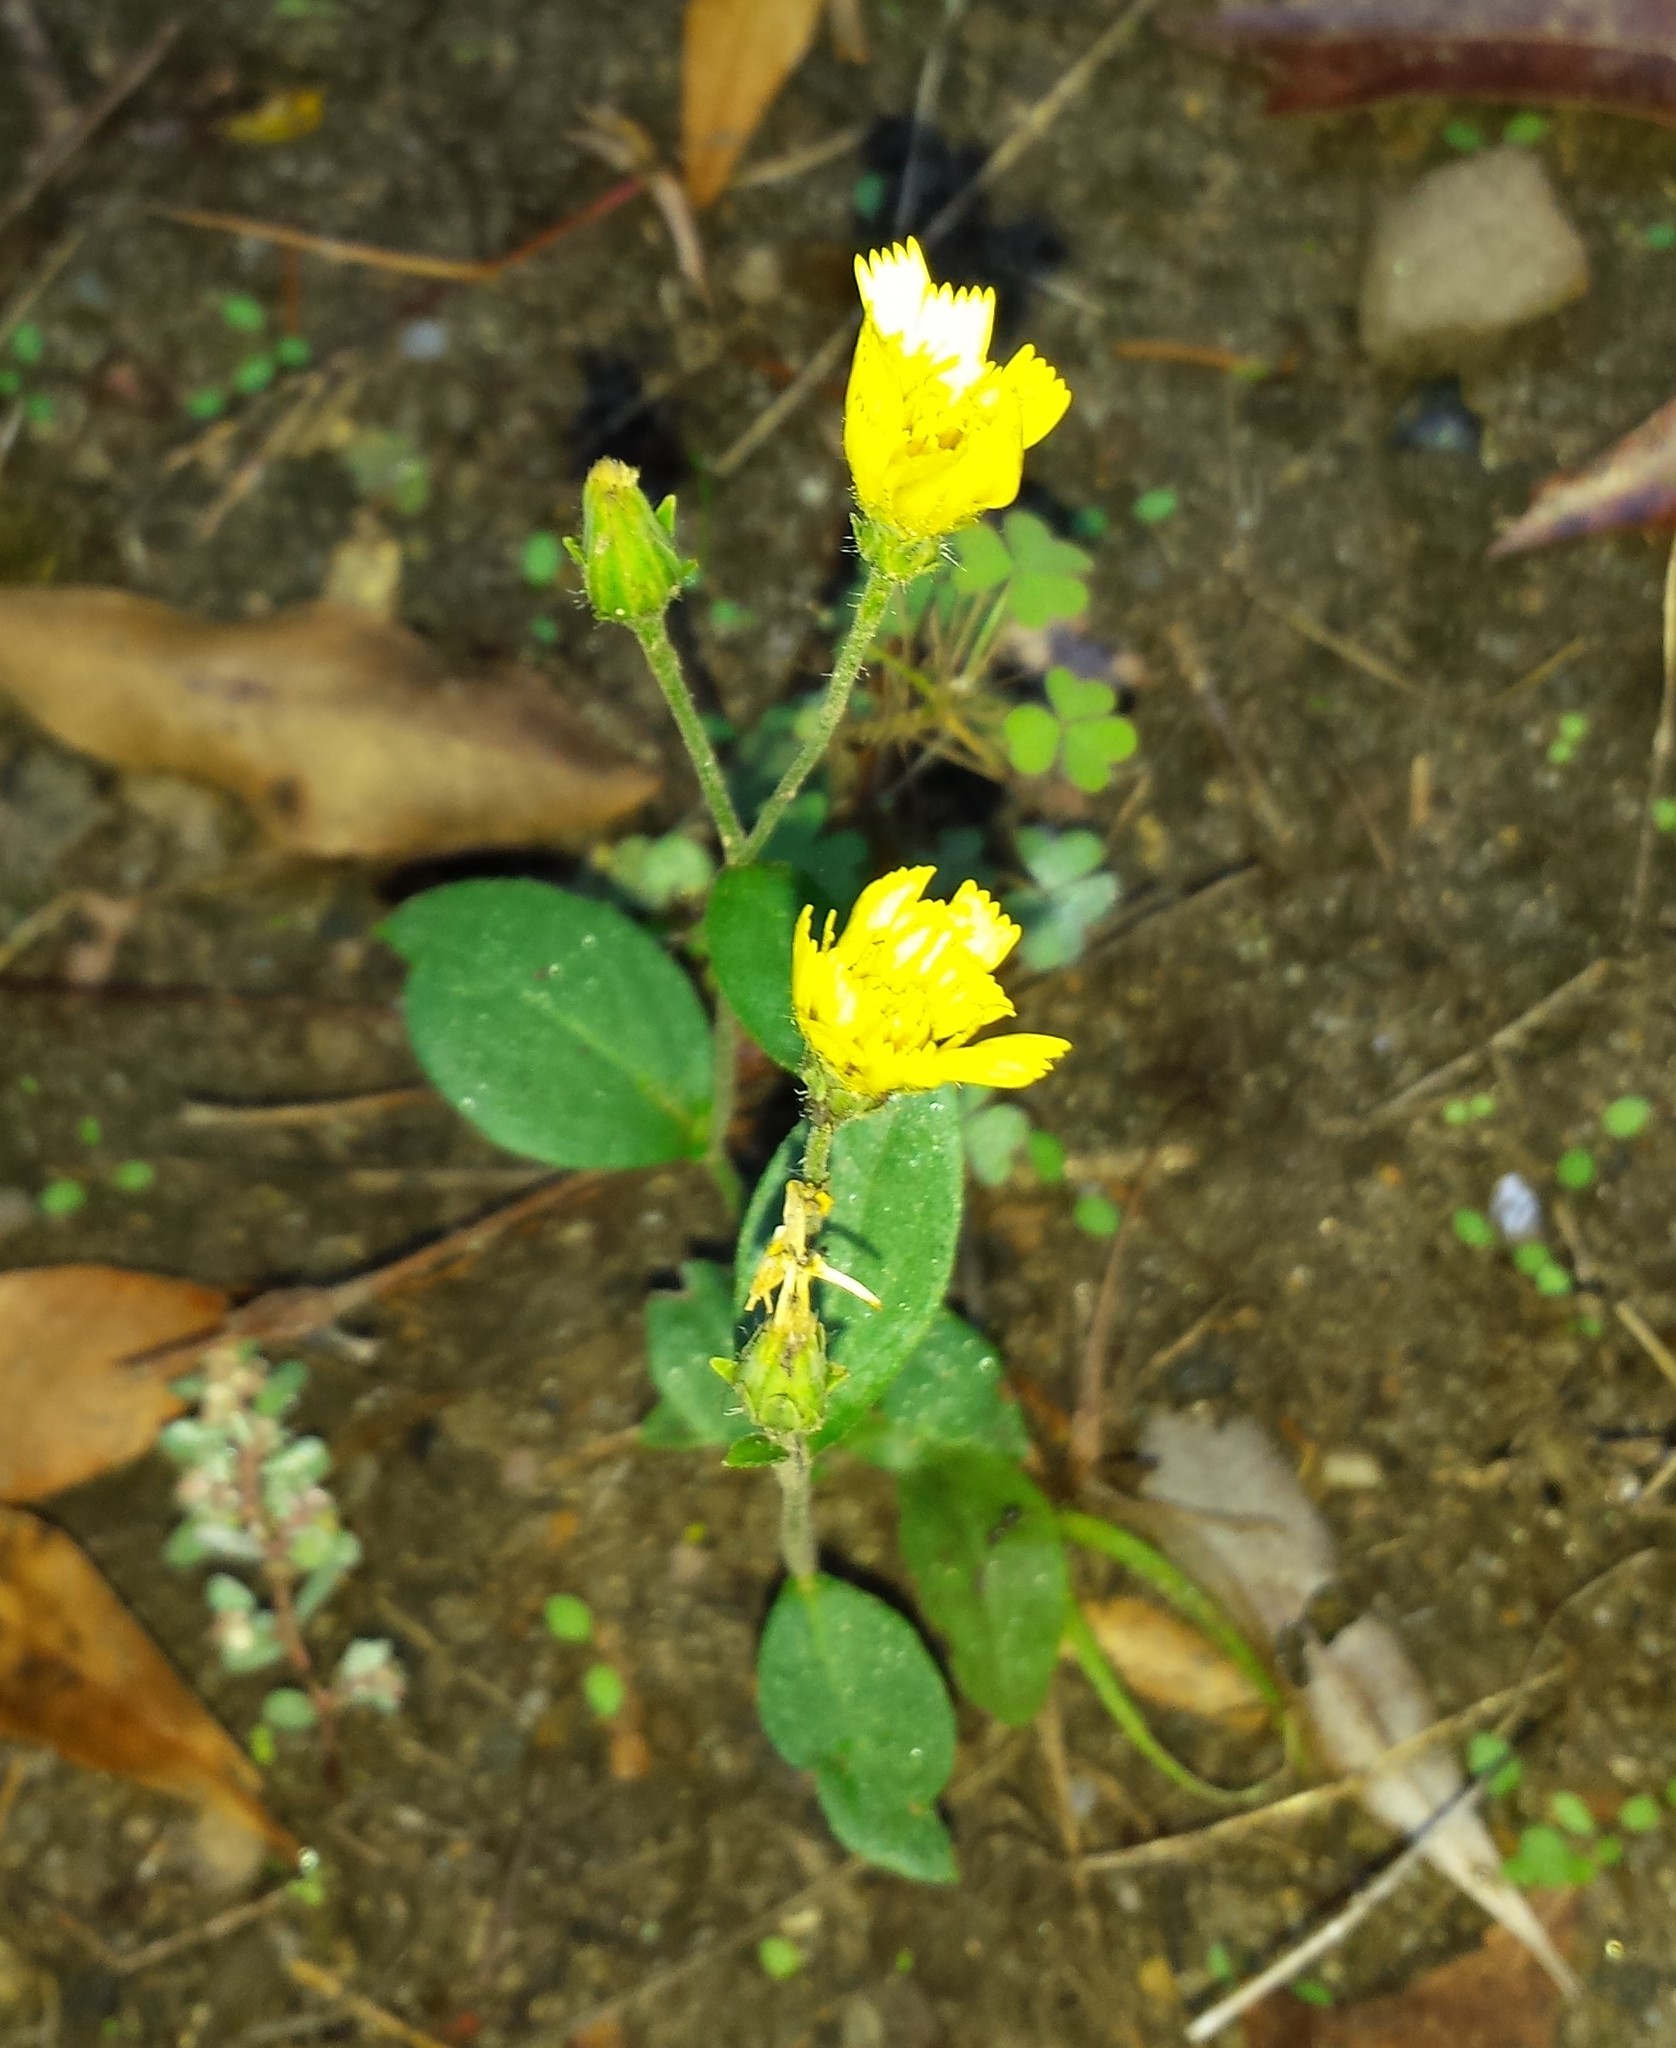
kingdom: Plantae
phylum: Tracheophyta
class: Magnoliopsida
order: Asterales
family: Asteraceae
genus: Hieracium
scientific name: Hieracium scabrum
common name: Rough hawkweed
